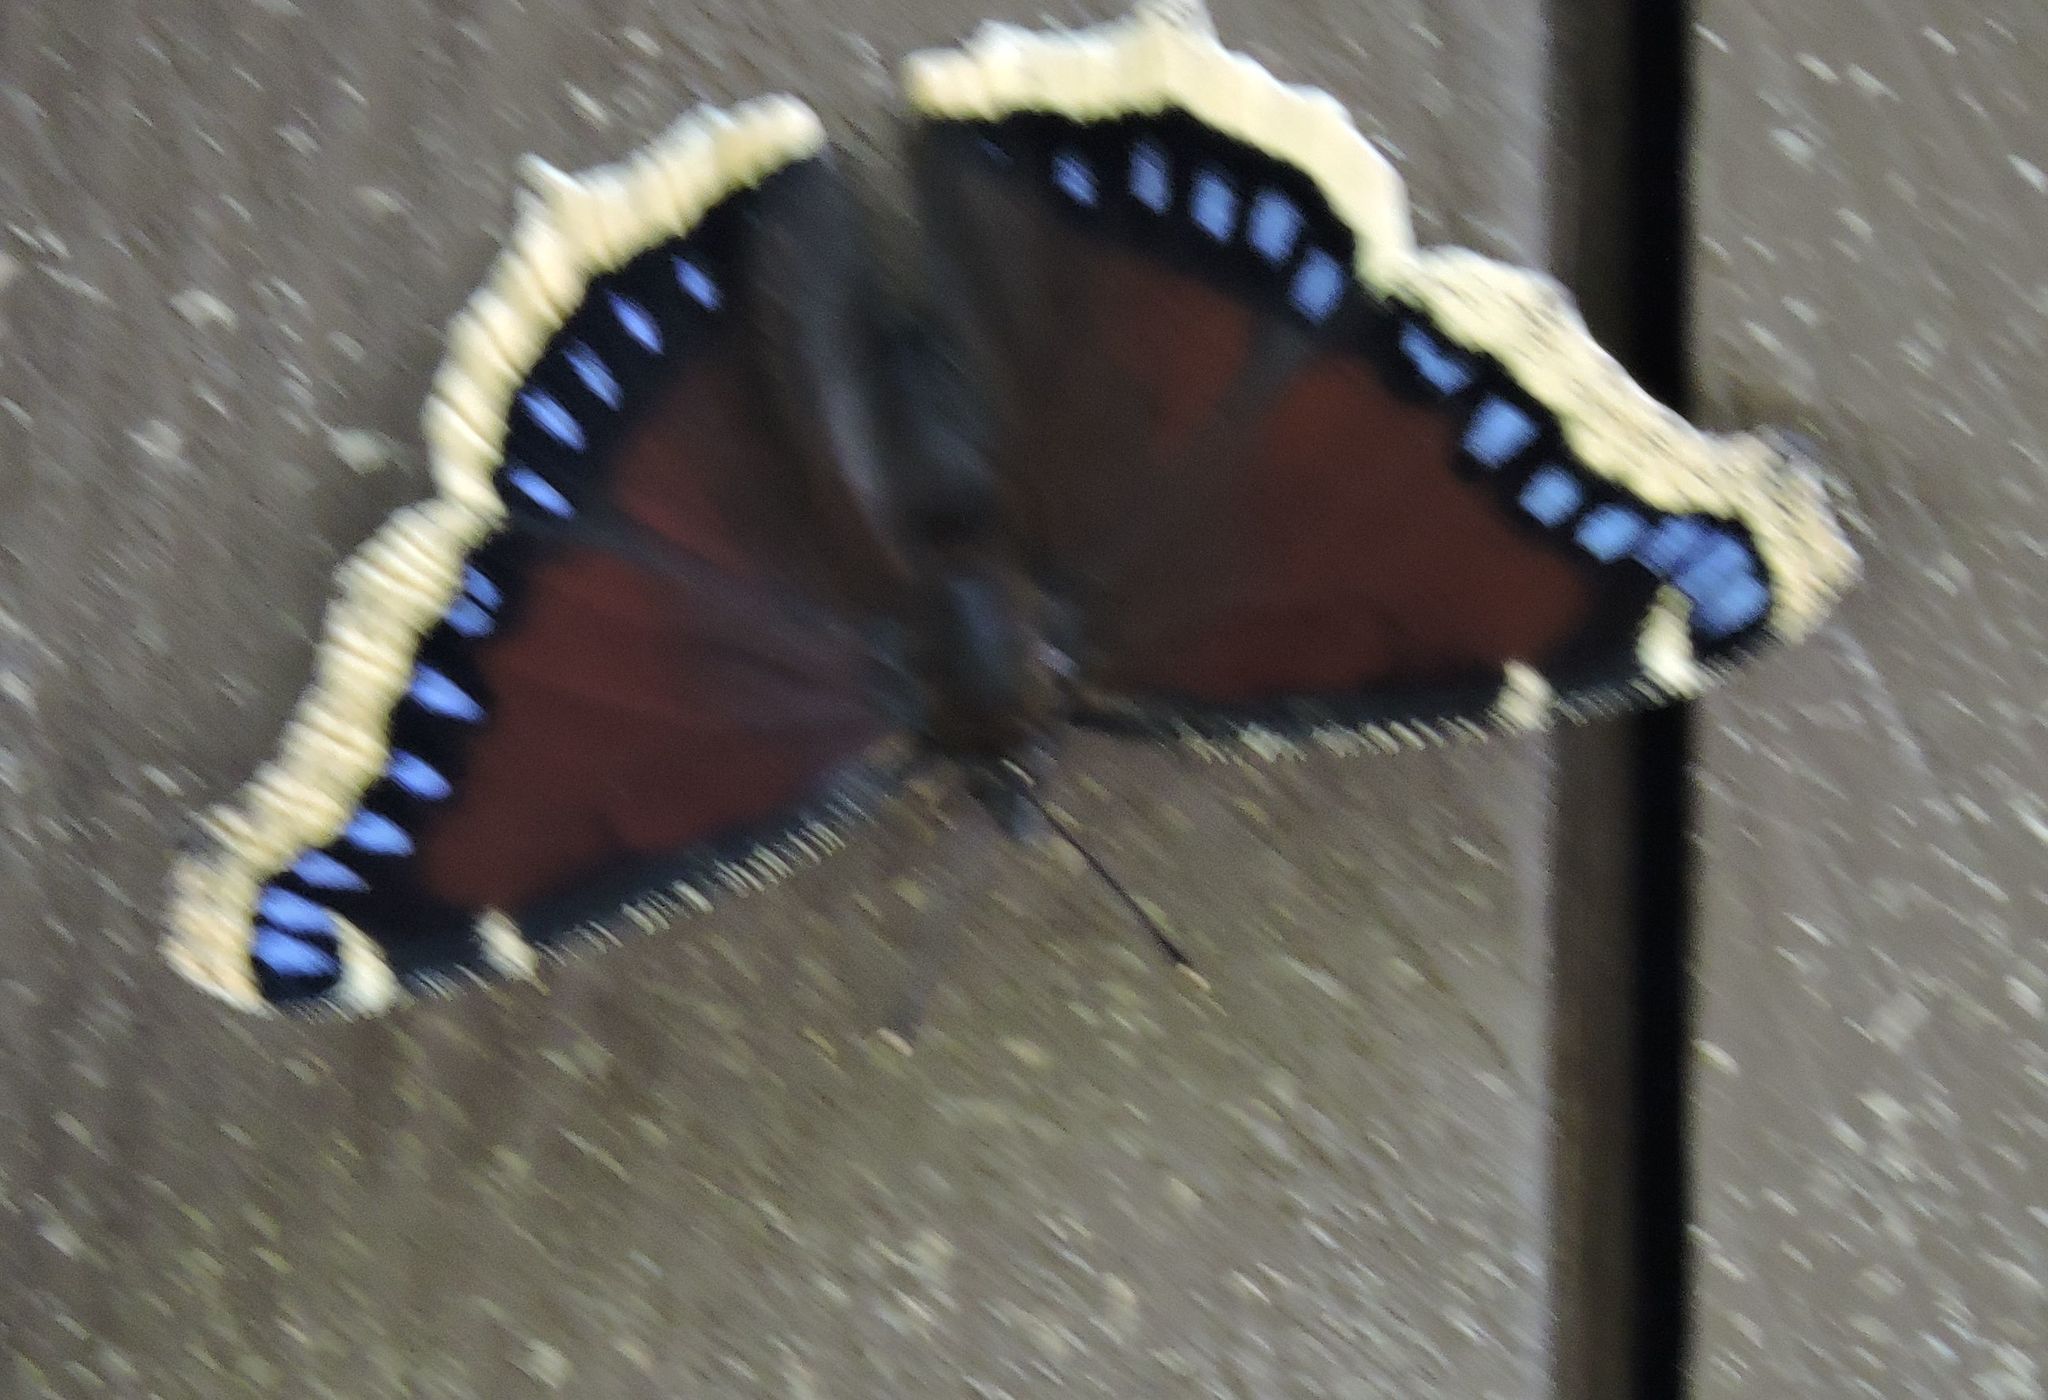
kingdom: Animalia
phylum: Arthropoda
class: Insecta
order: Lepidoptera
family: Nymphalidae
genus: Nymphalis
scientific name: Nymphalis antiopa
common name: Camberwell beauty
